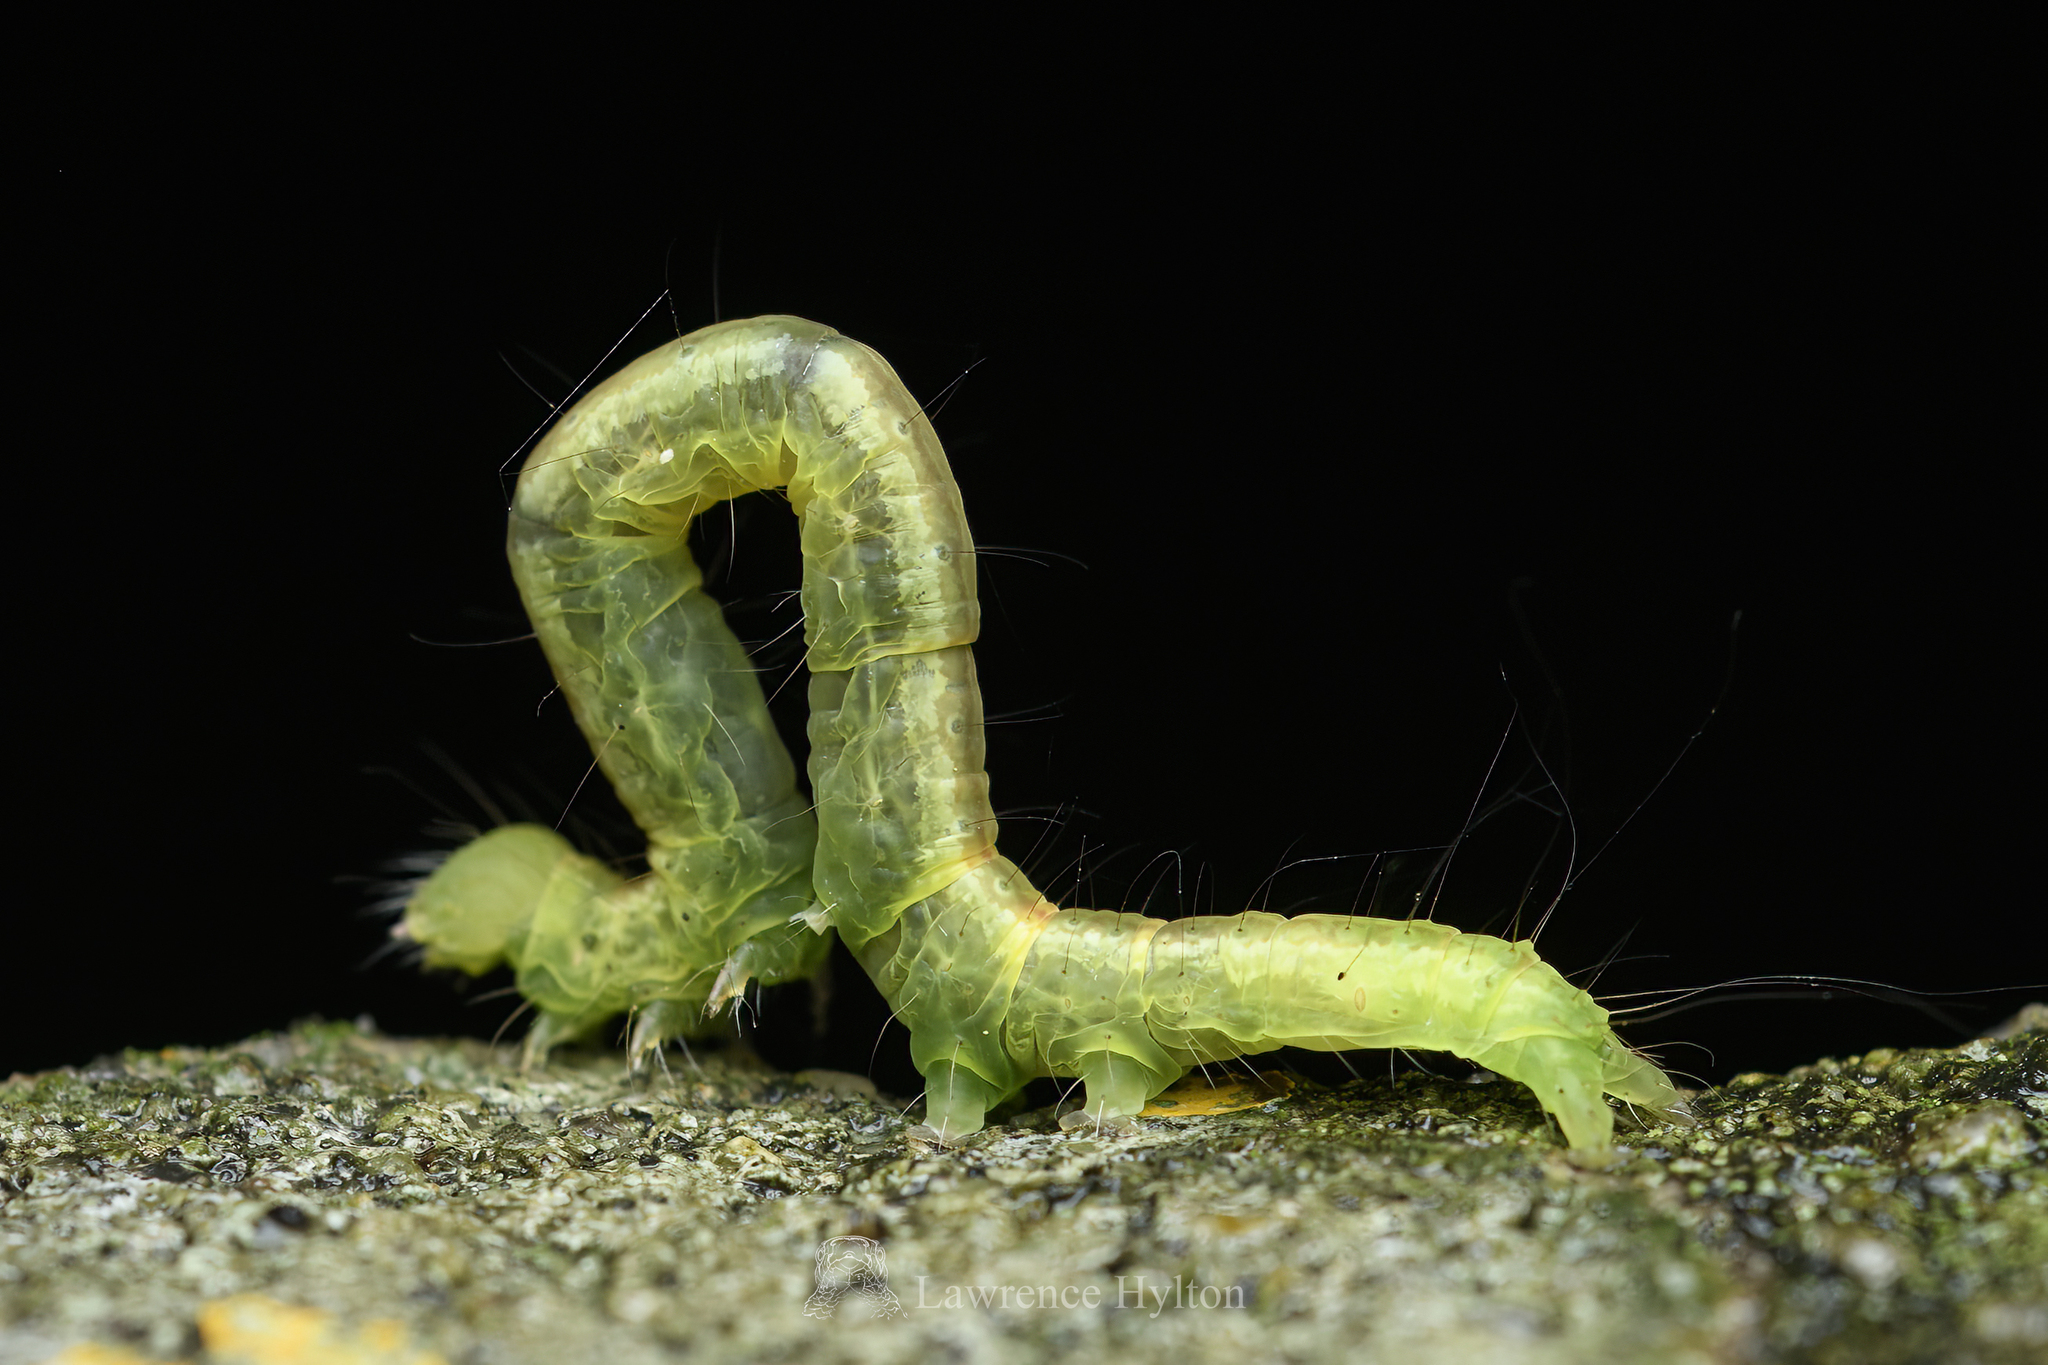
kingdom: Animalia
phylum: Arthropoda
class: Insecta
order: Lepidoptera
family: Erebidae
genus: Pericyma
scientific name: Pericyma cruegeri
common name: Poinciana looper
